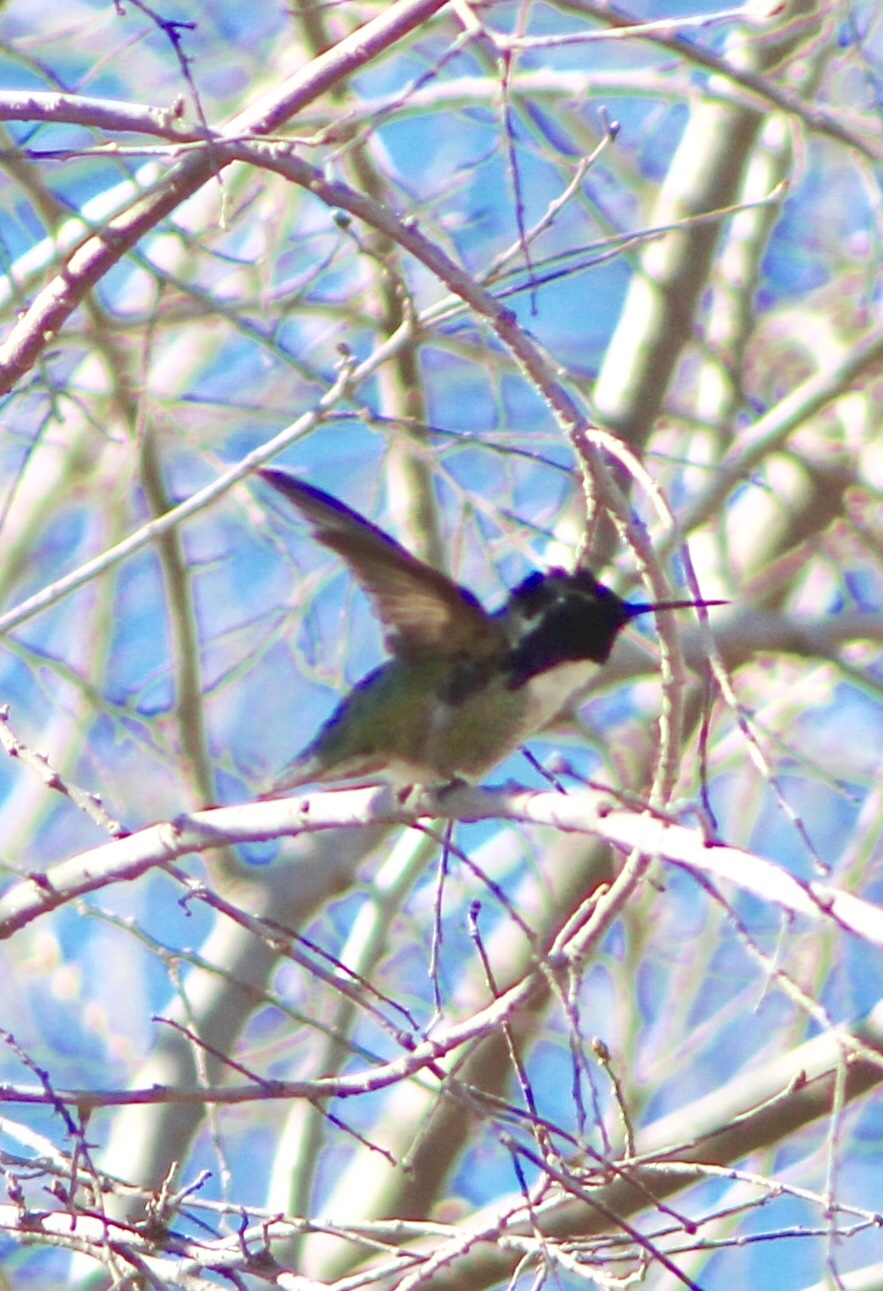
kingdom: Animalia
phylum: Chordata
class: Aves
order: Apodiformes
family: Trochilidae
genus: Calypte
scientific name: Calypte costae
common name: Costa's hummingbird
